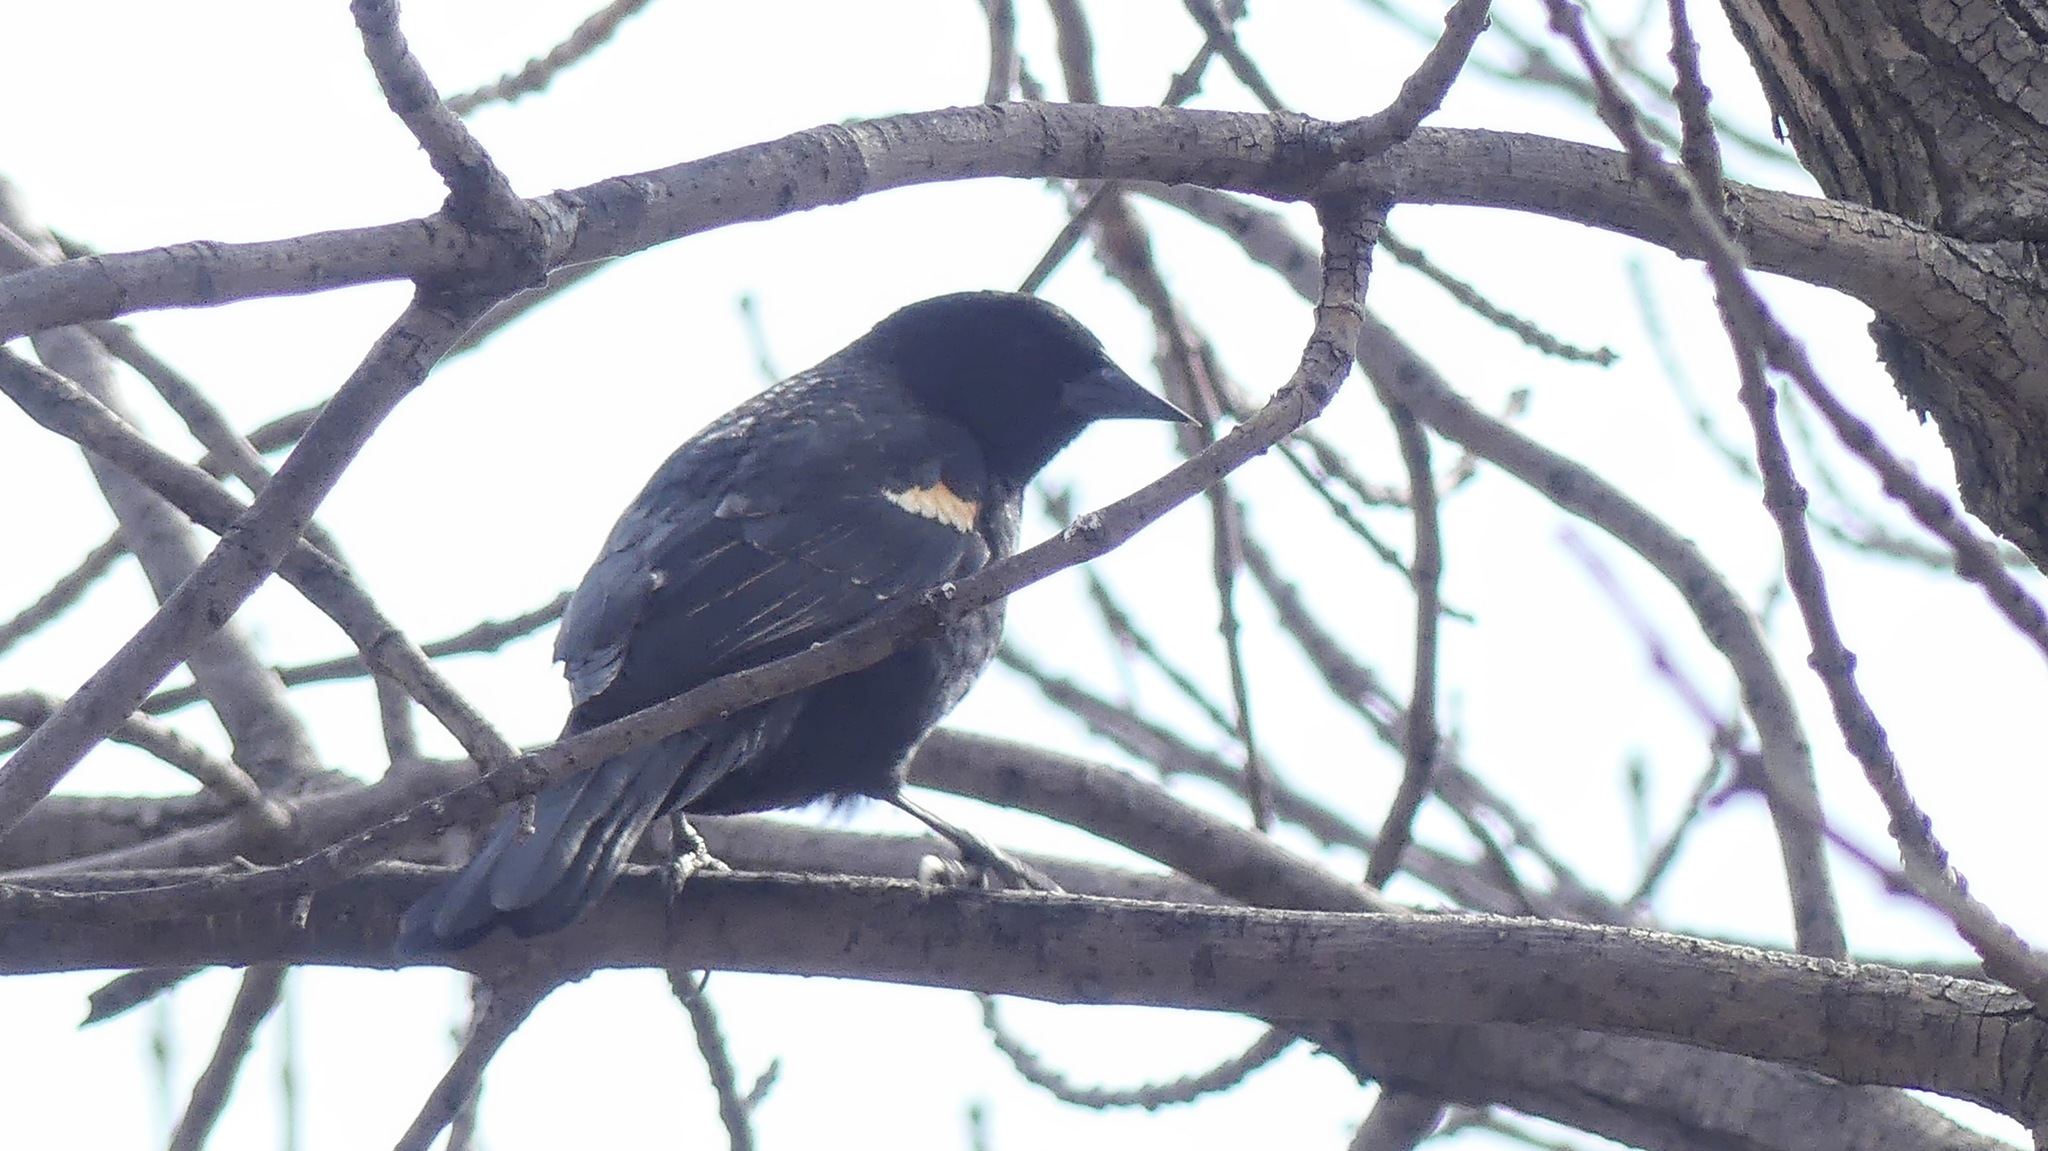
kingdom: Animalia
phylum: Chordata
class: Aves
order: Passeriformes
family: Icteridae
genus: Agelaius
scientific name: Agelaius phoeniceus
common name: Red-winged blackbird
